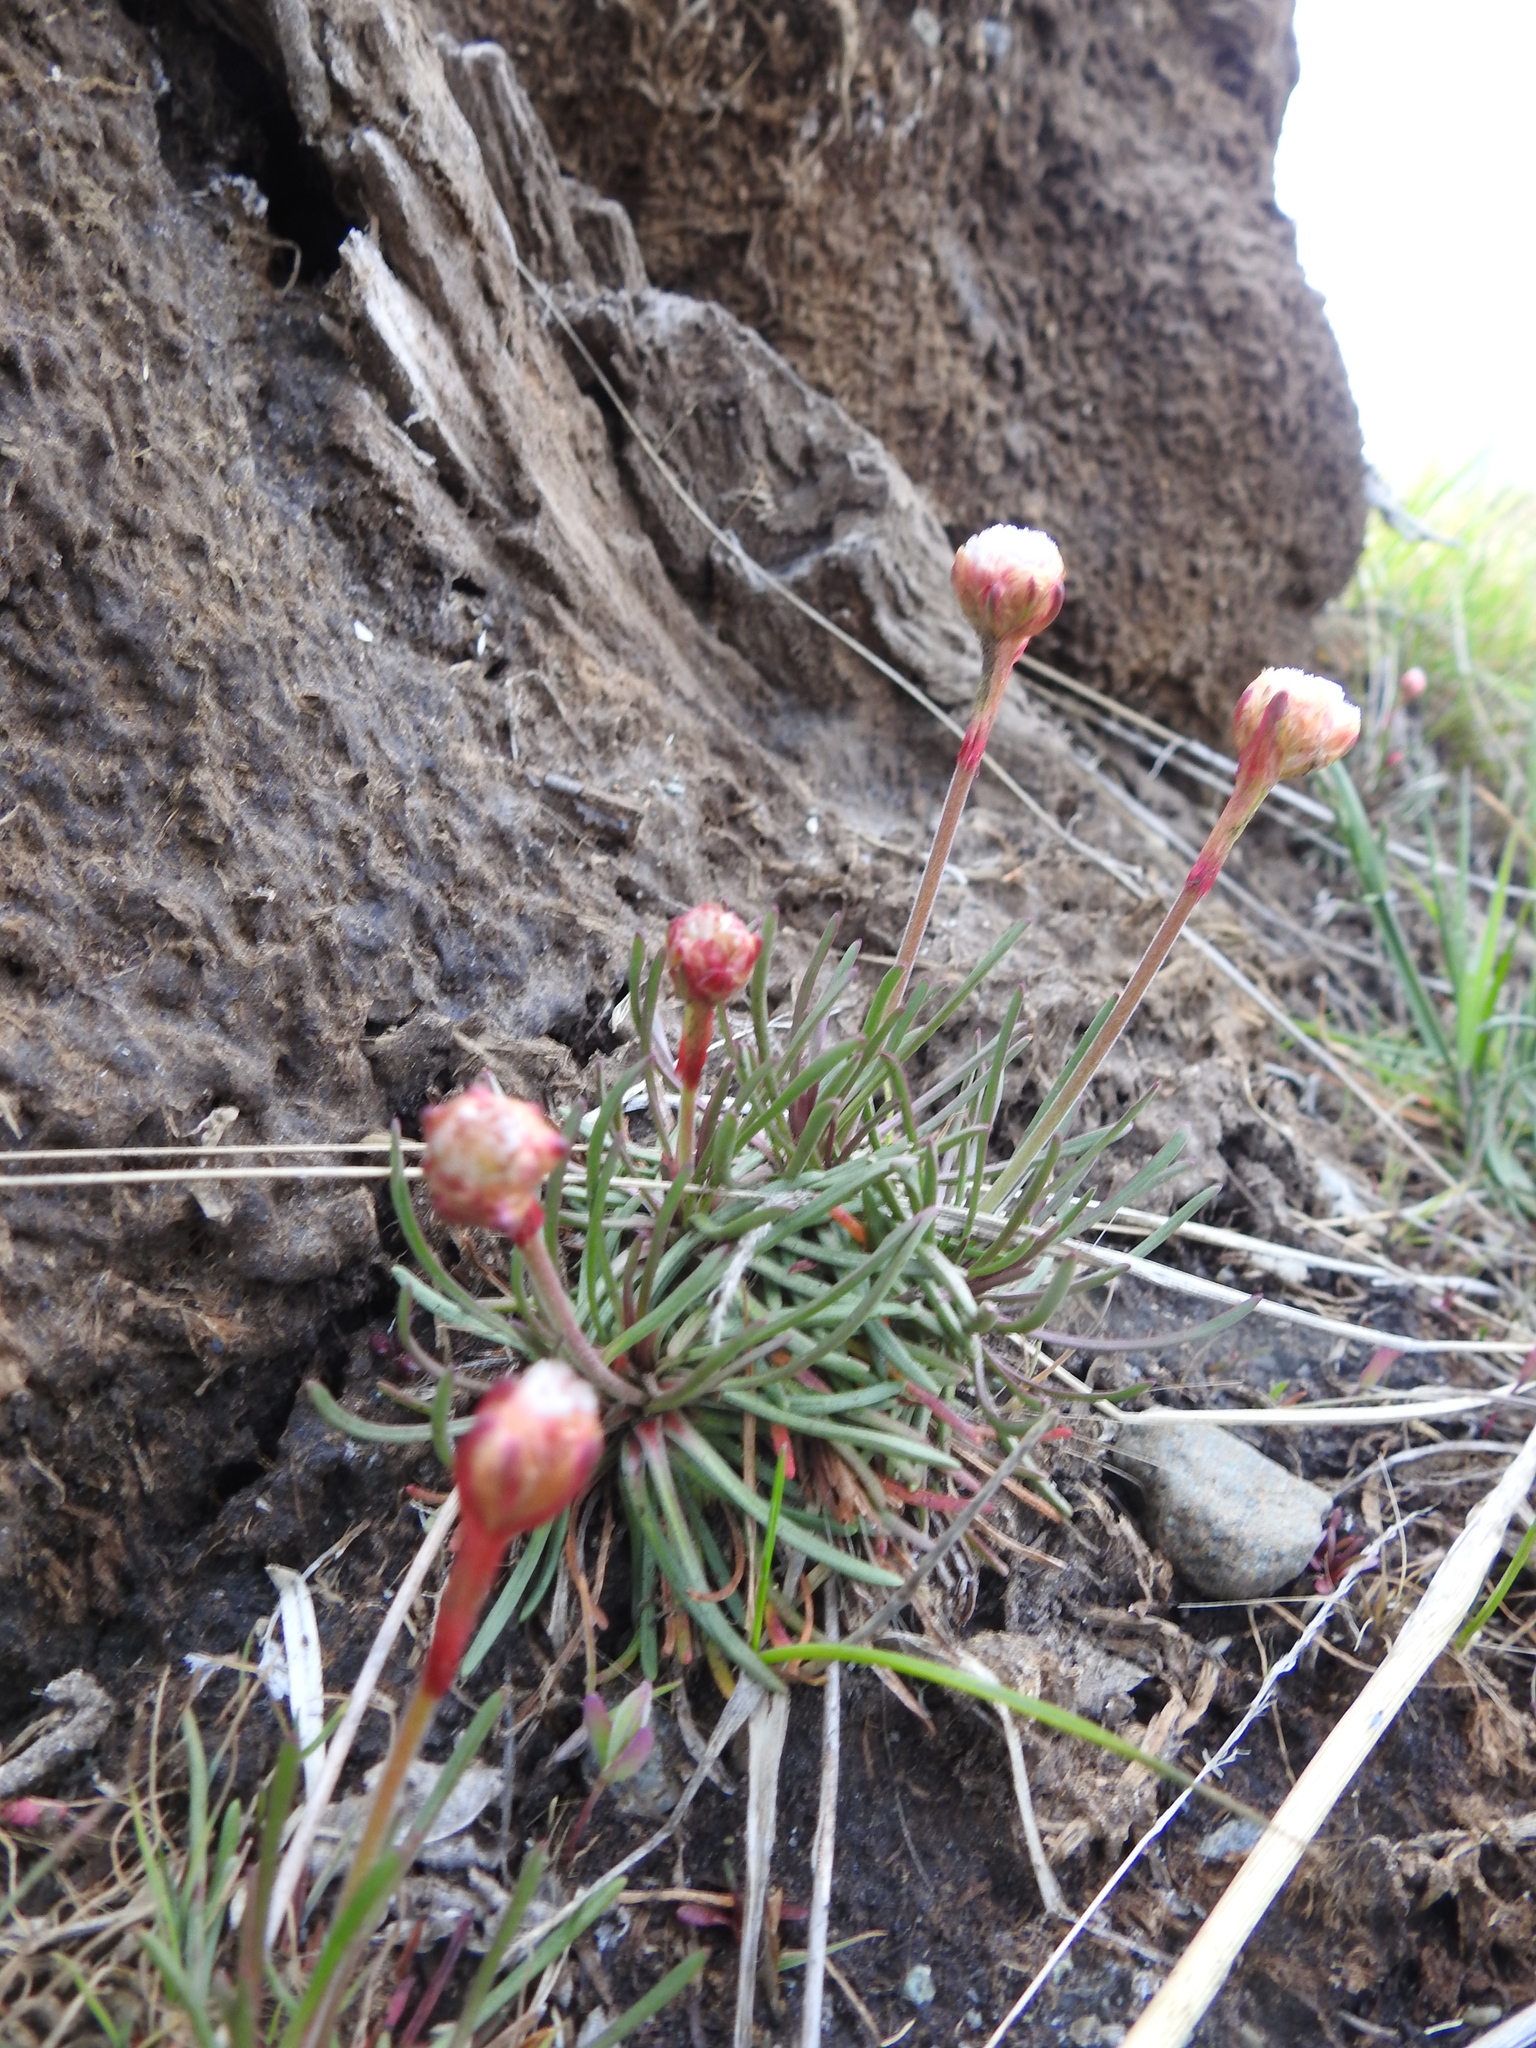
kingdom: Plantae
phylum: Tracheophyta
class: Magnoliopsida
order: Caryophyllales
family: Plumbaginaceae
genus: Armeria
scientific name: Armeria curvifolia
